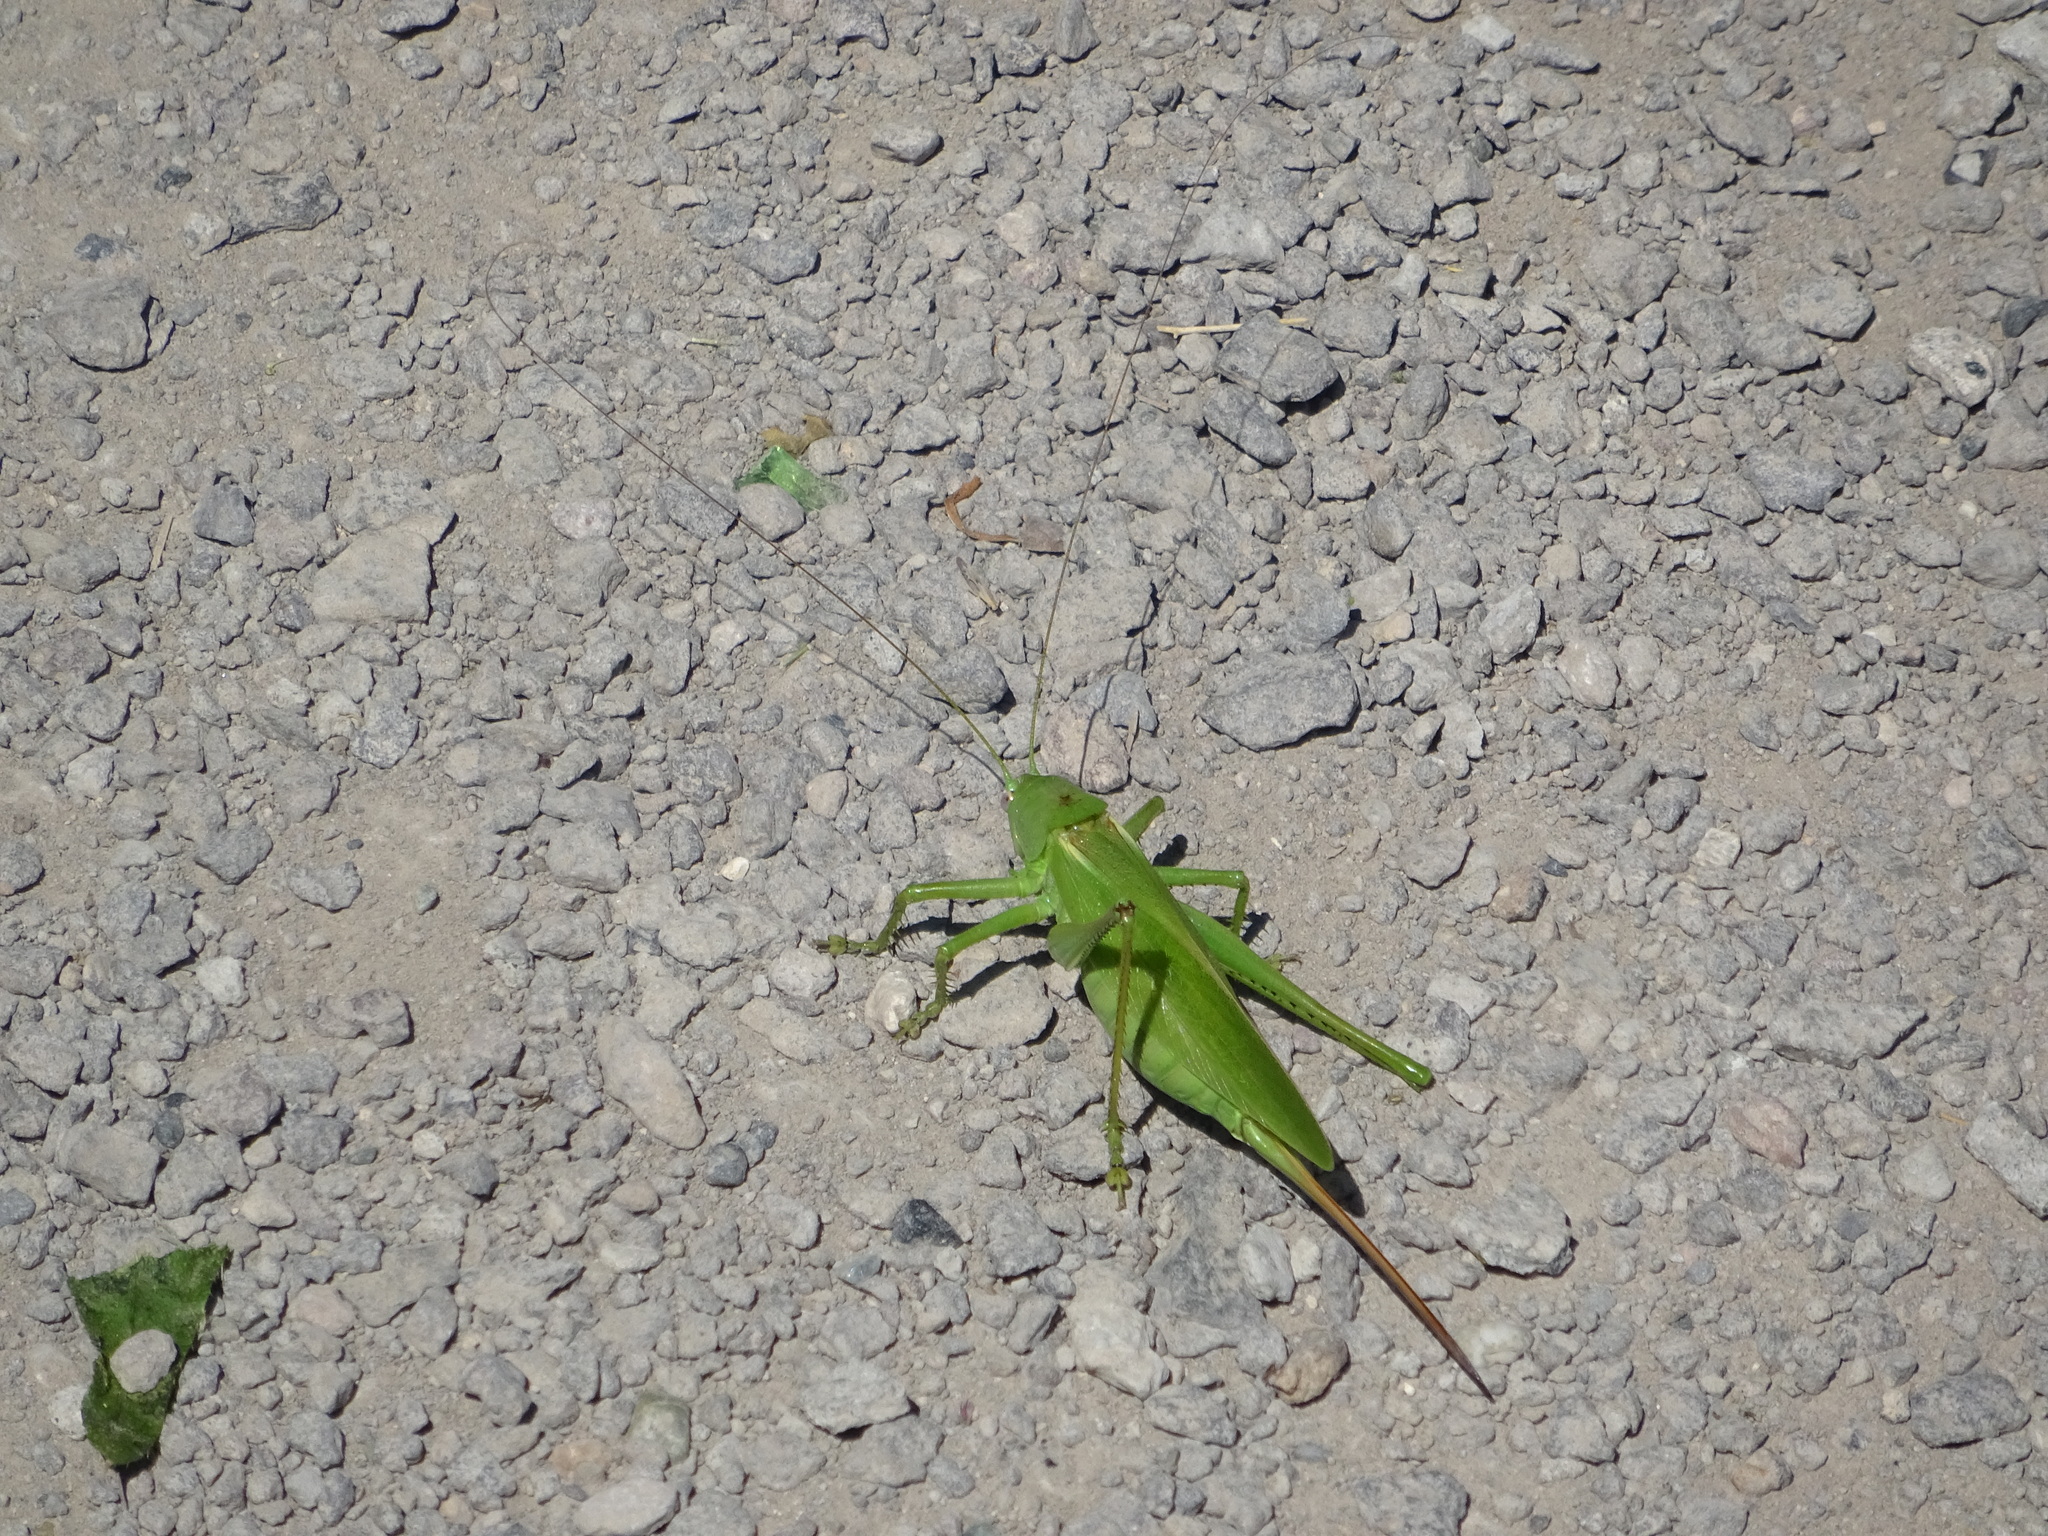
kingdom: Animalia
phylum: Arthropoda
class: Insecta
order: Orthoptera
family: Tettigoniidae
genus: Tettigonia
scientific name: Tettigonia caudata
